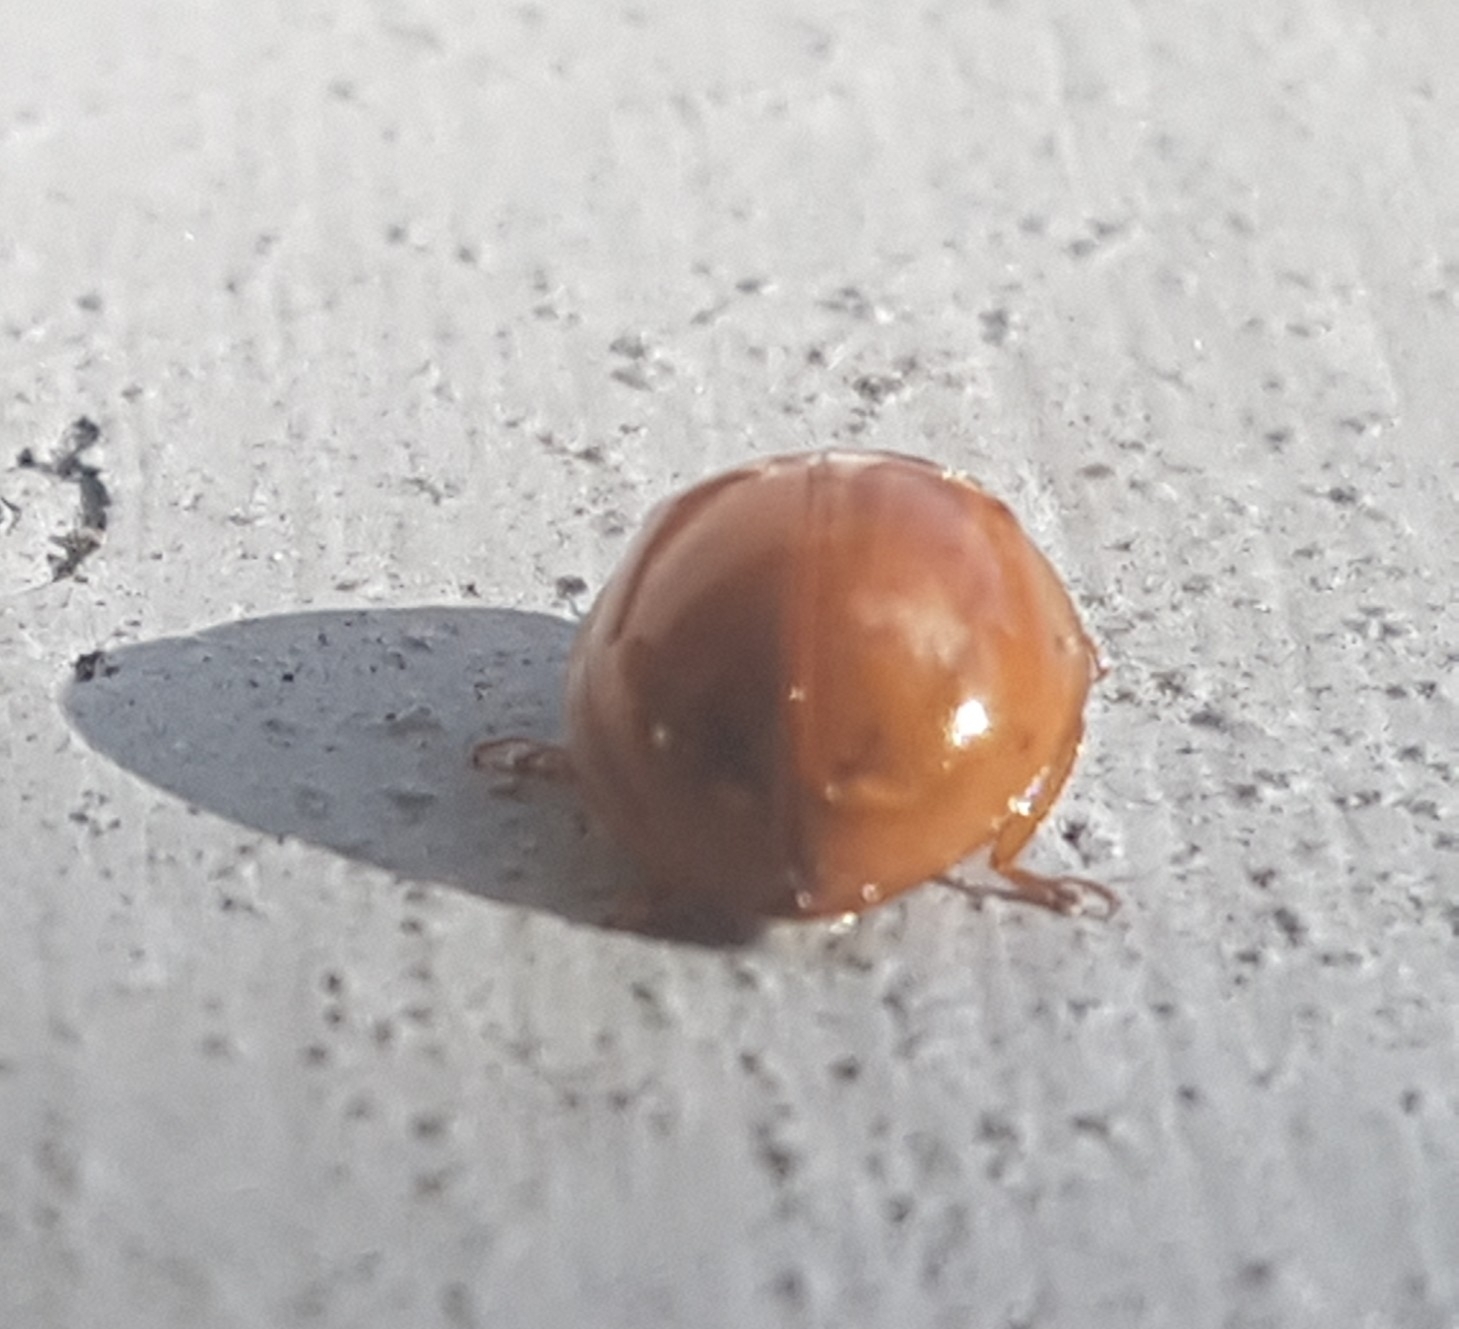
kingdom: Animalia
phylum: Arthropoda
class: Insecta
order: Coleoptera
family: Coccinellidae
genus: Harmonia
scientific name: Harmonia axyridis
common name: Harlequin ladybird
